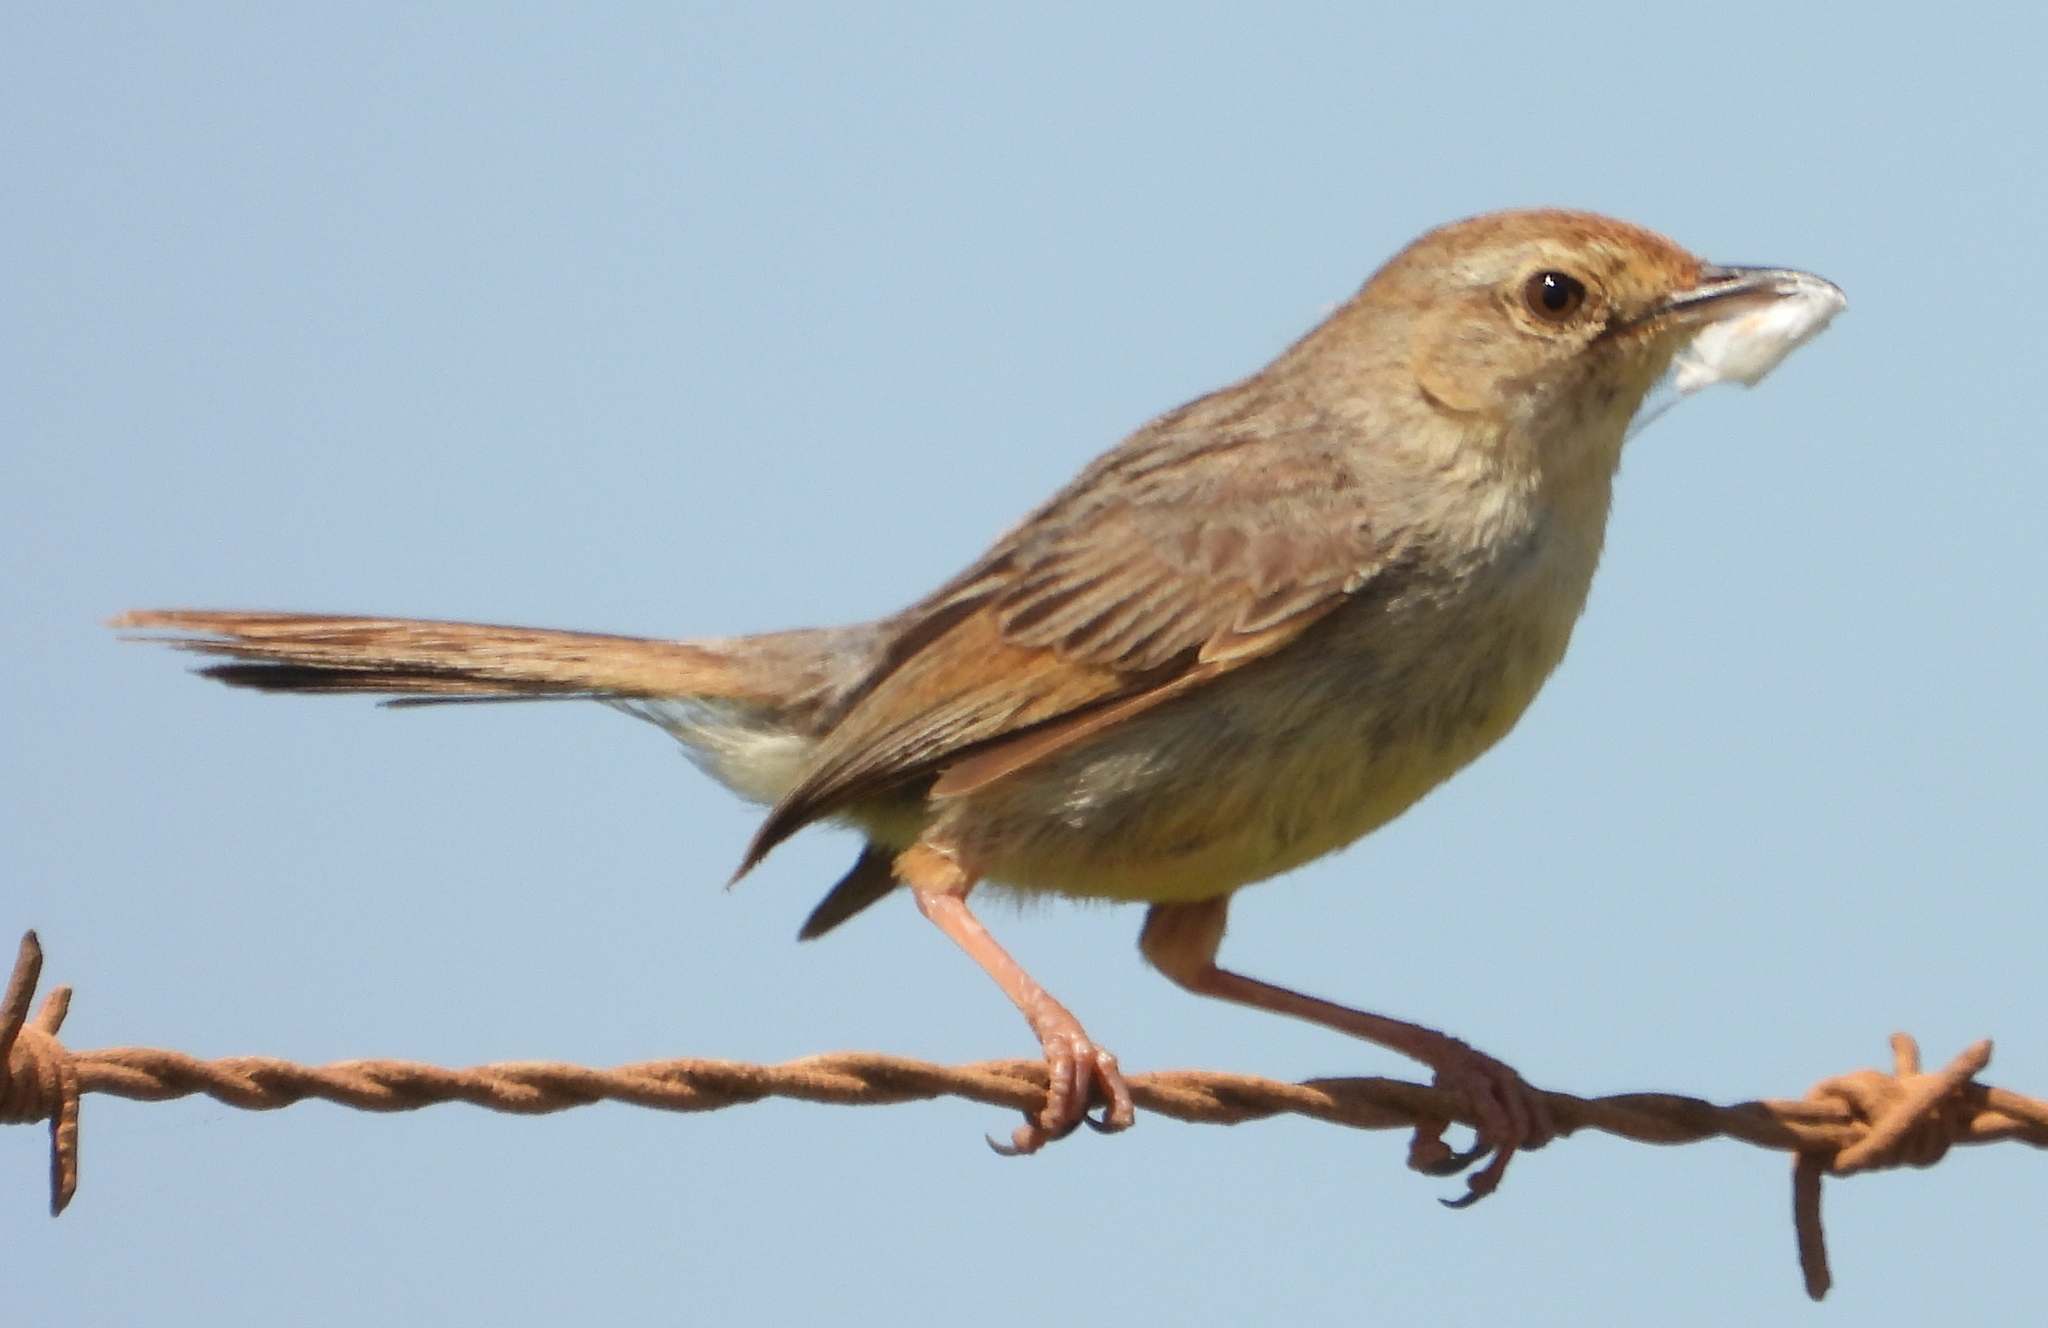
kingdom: Animalia
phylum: Chordata
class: Aves
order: Passeriformes
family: Cisticolidae
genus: Cisticola
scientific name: Cisticola subruficapilla
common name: Grey-backed cisticola
